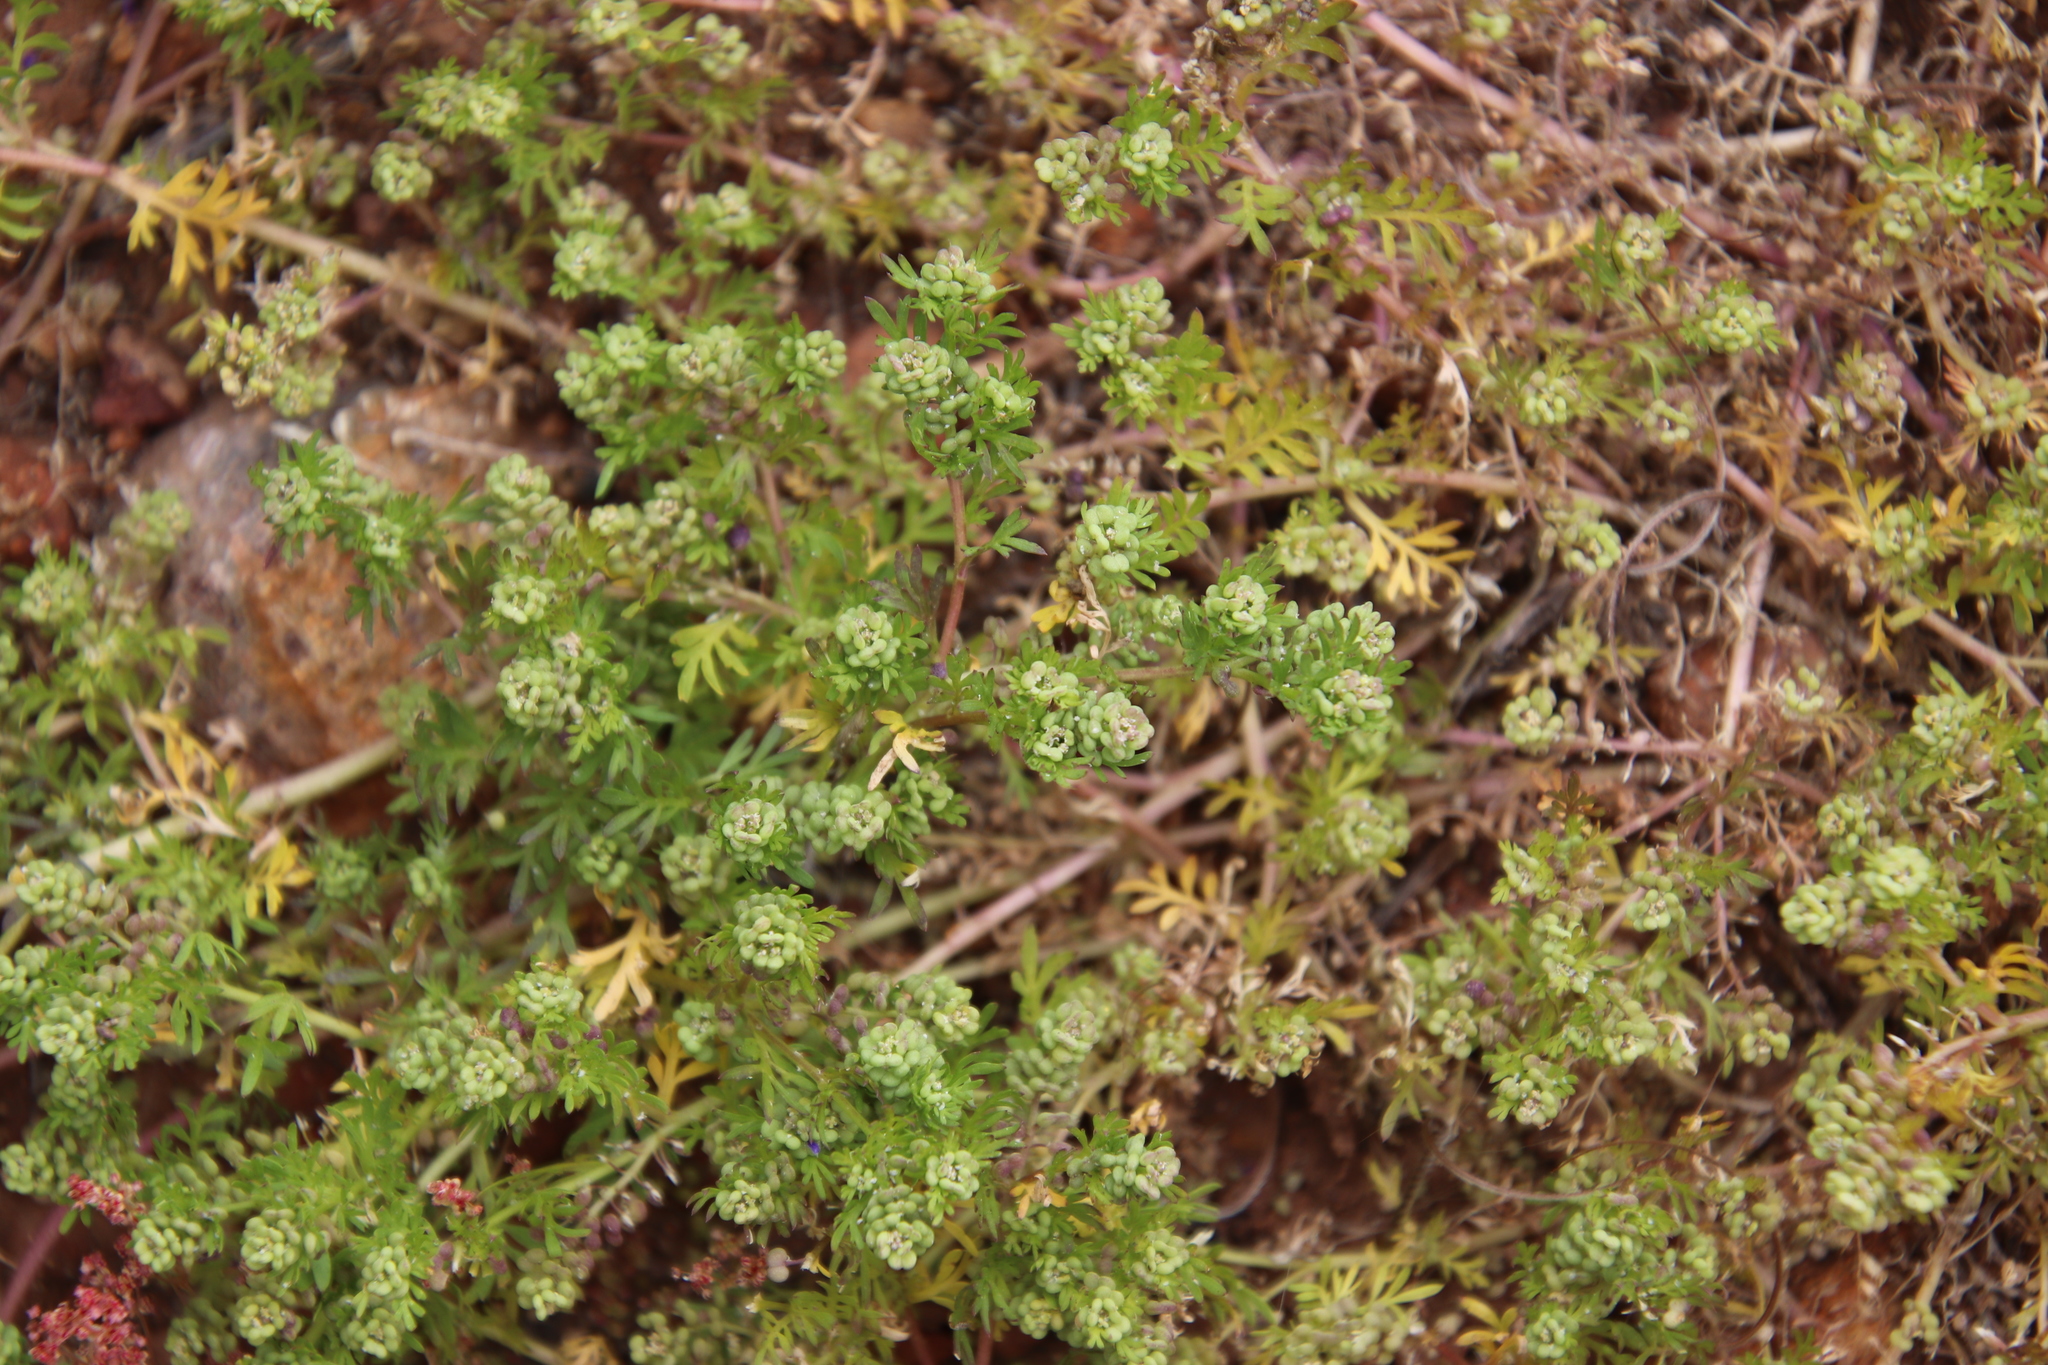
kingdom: Plantae
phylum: Tracheophyta
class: Magnoliopsida
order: Brassicales
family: Brassicaceae
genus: Lepidium
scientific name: Lepidium didymum
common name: Lesser swinecress
